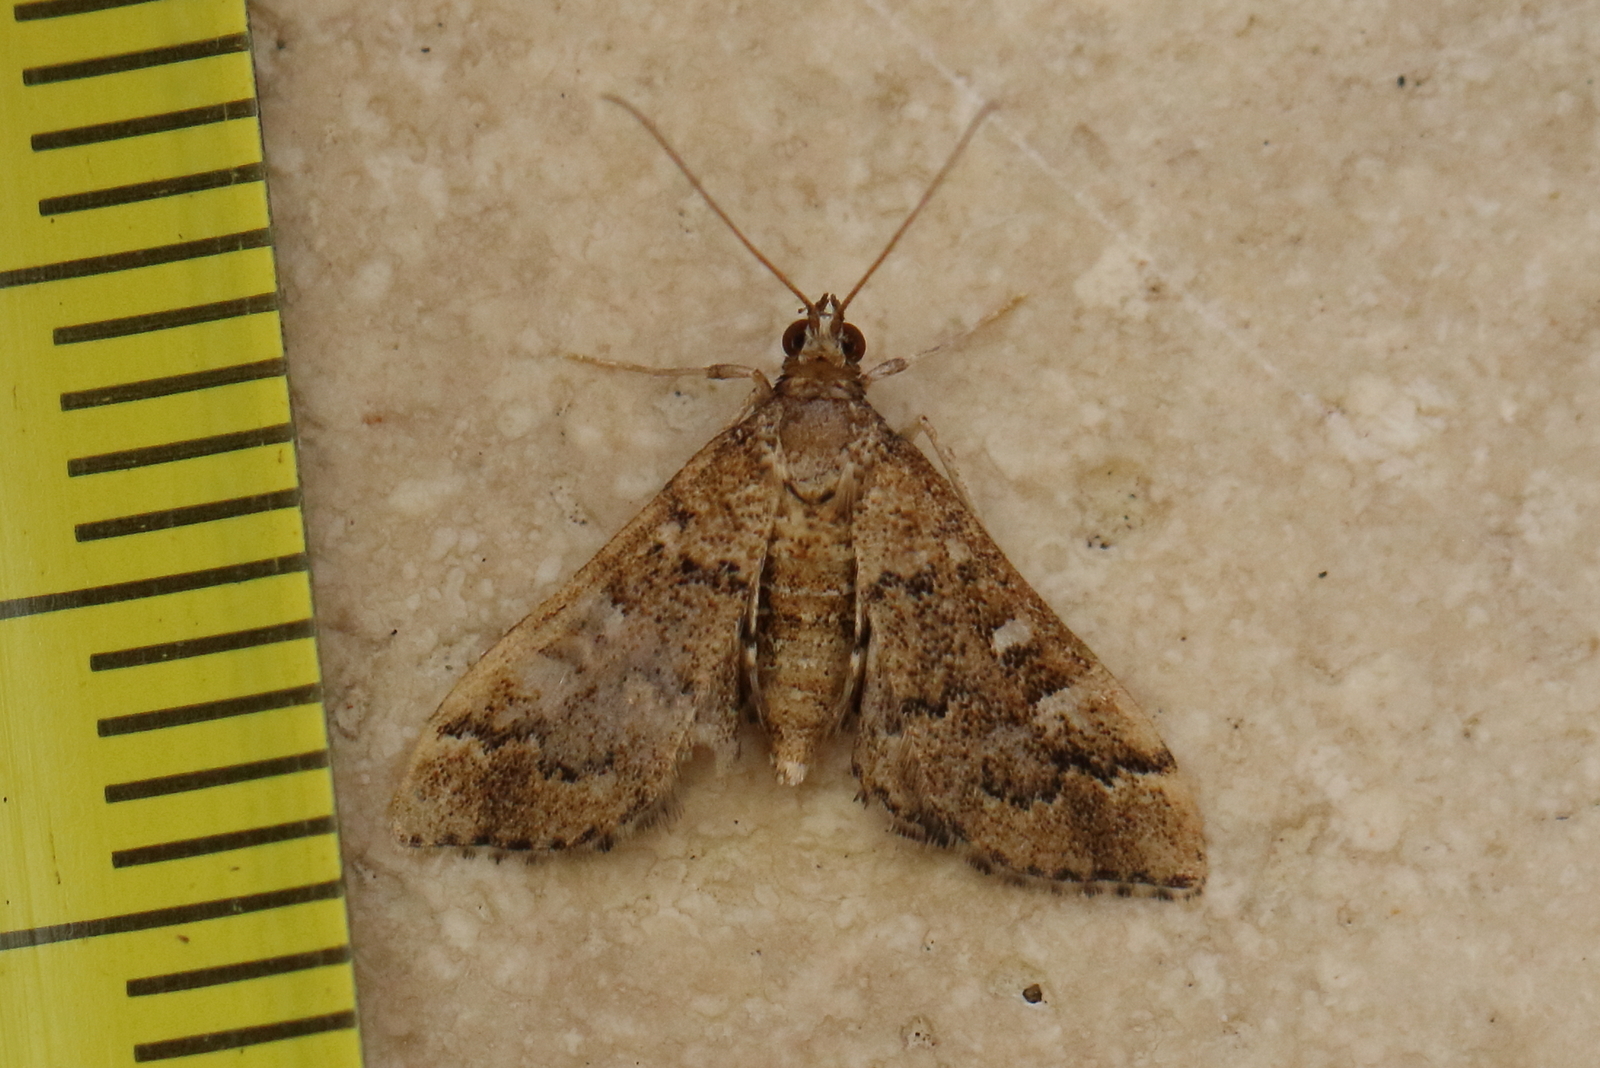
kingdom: Animalia
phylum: Arthropoda
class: Insecta
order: Lepidoptera
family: Crambidae
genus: Nacoleia
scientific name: Nacoleia rhoeoalis
